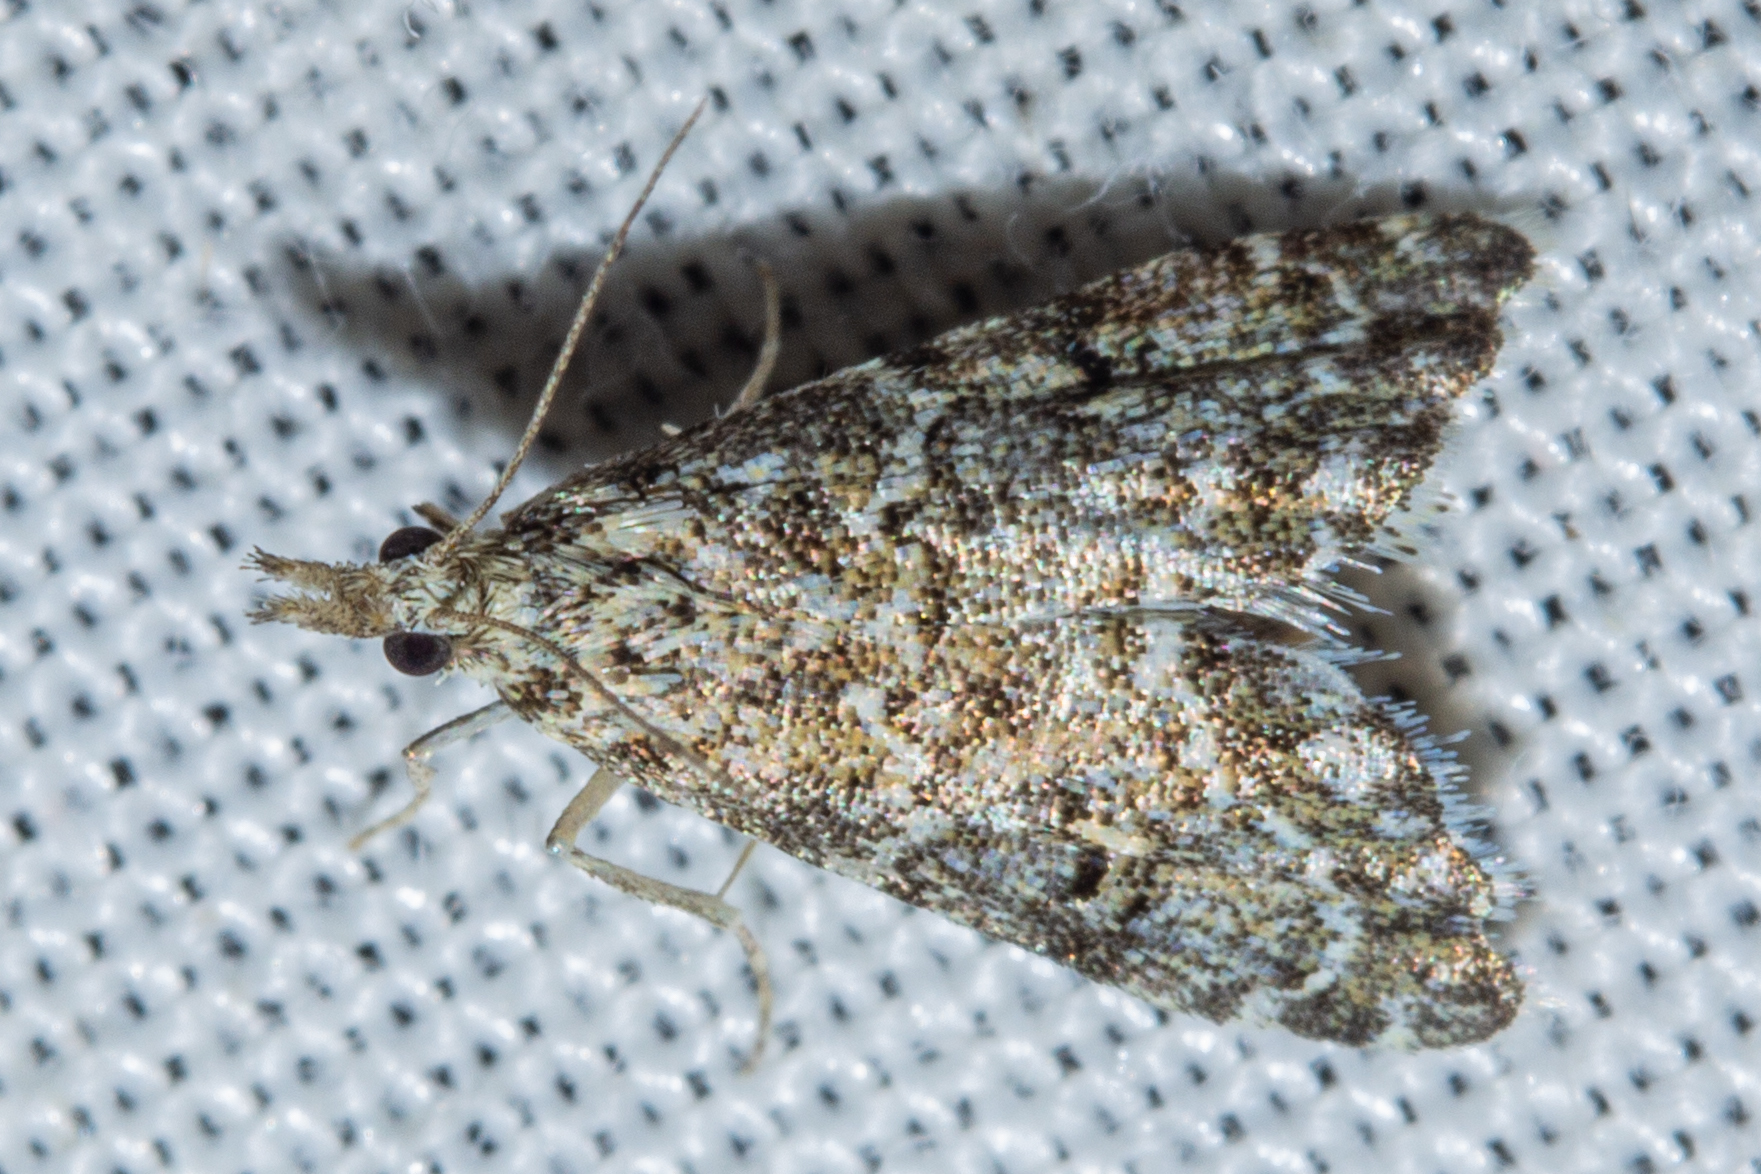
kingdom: Animalia
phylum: Arthropoda
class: Insecta
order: Lepidoptera
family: Crambidae
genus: Glaucocharis
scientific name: Glaucocharis elaina
